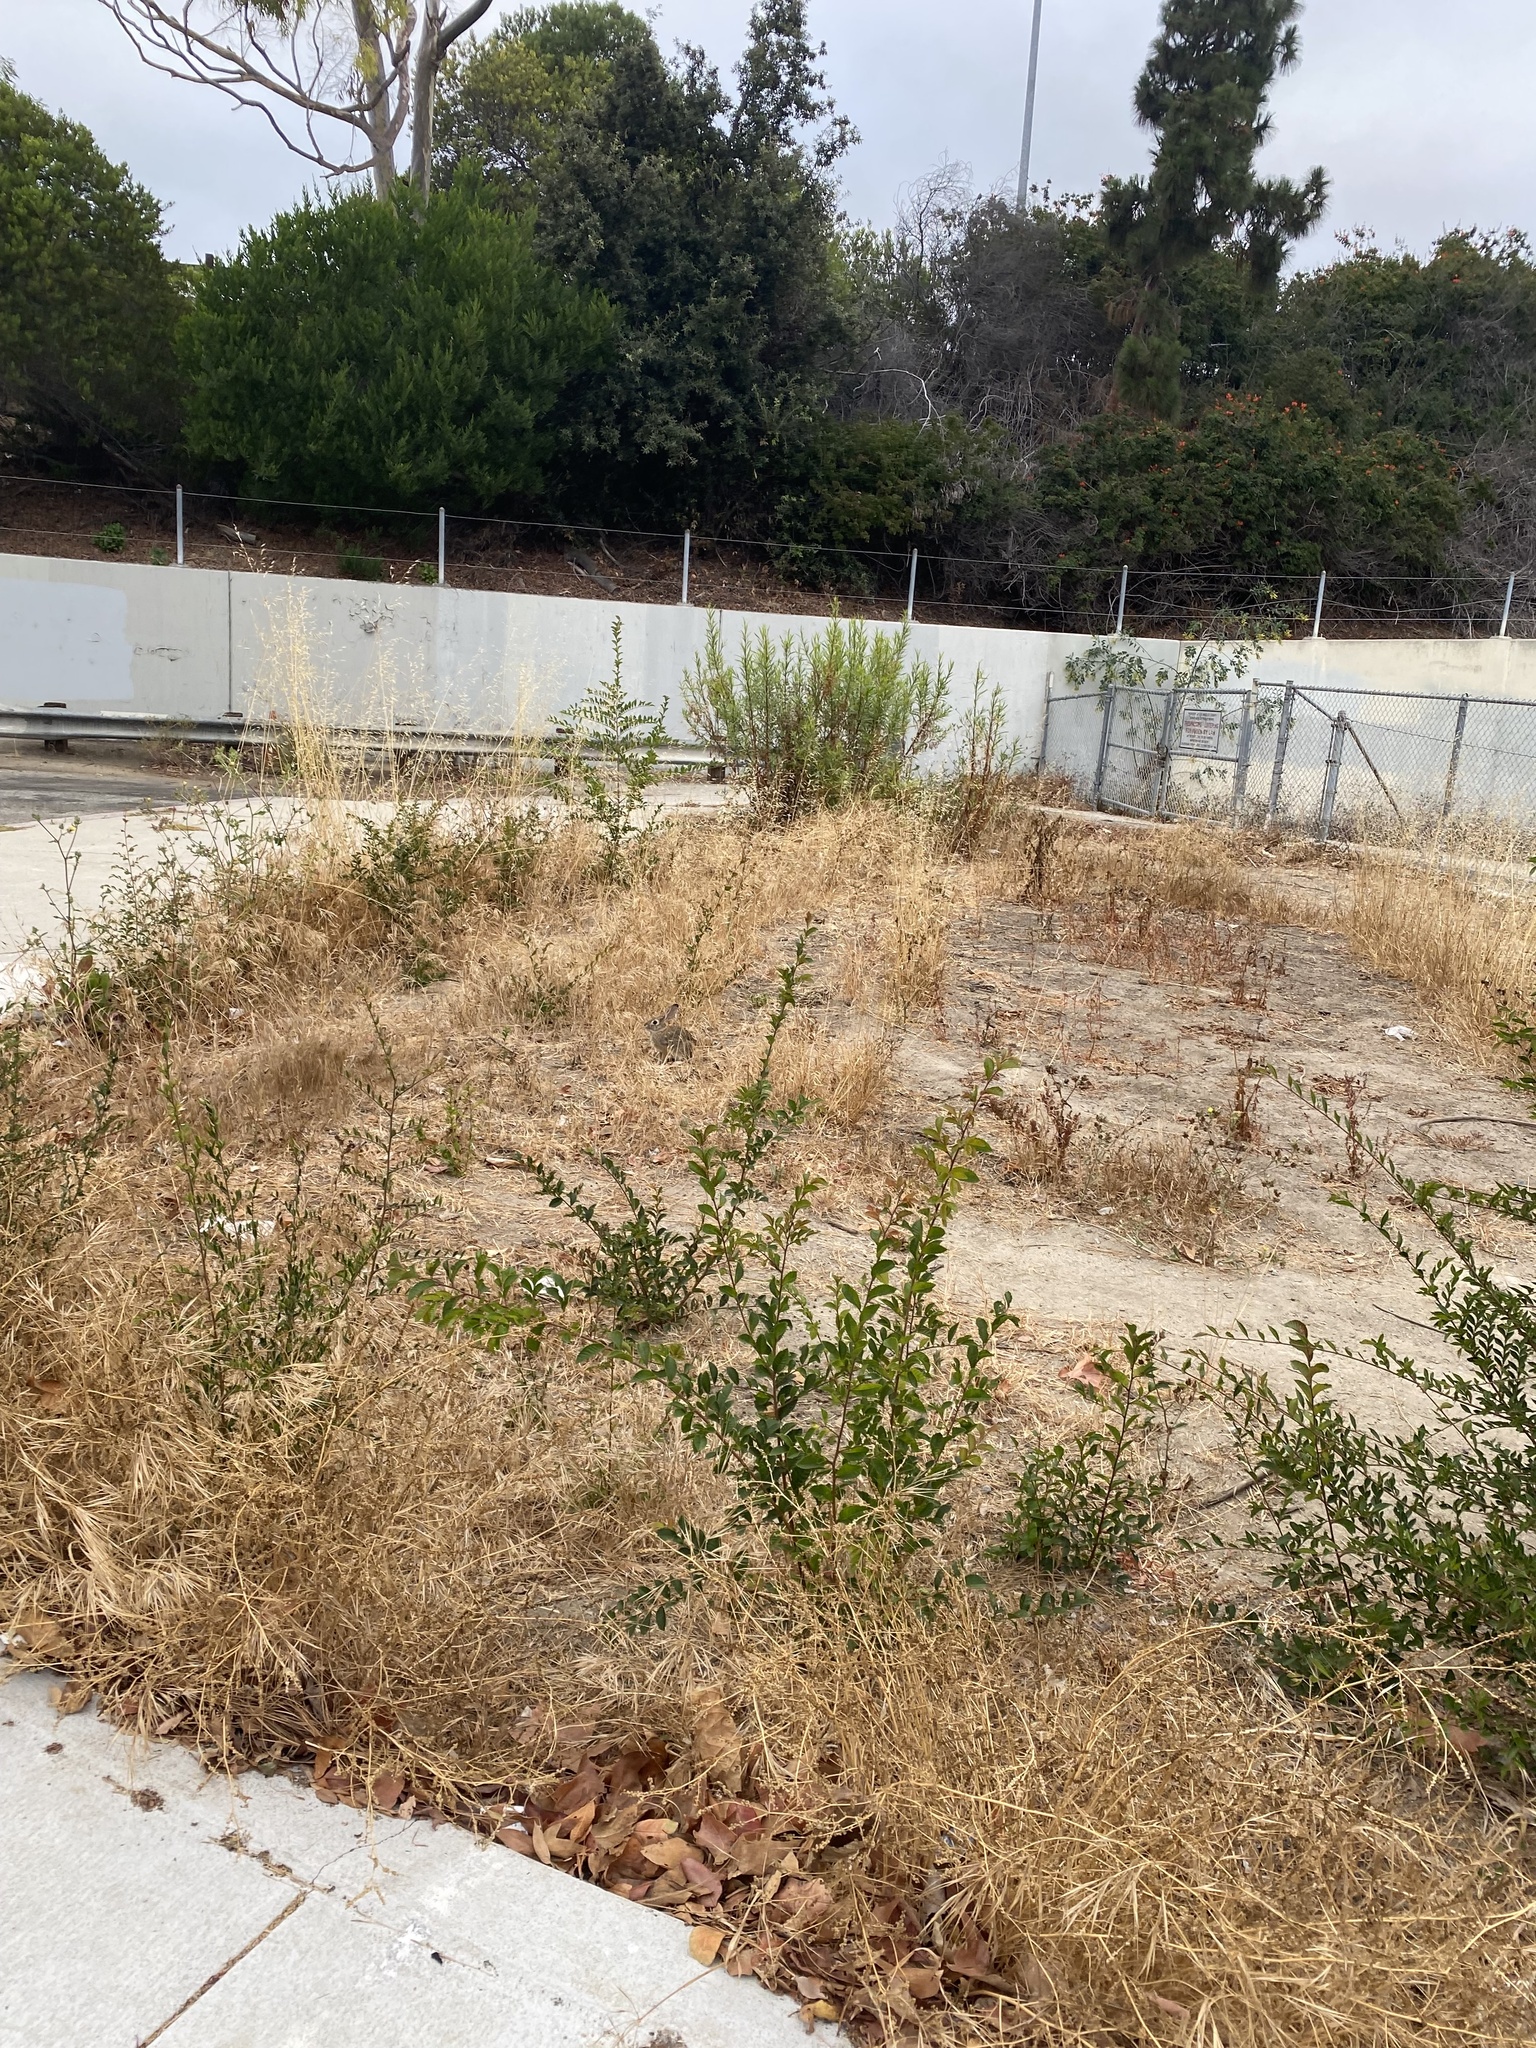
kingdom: Animalia
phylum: Chordata
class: Mammalia
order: Lagomorpha
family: Leporidae
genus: Sylvilagus
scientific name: Sylvilagus audubonii
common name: Desert cottontail
